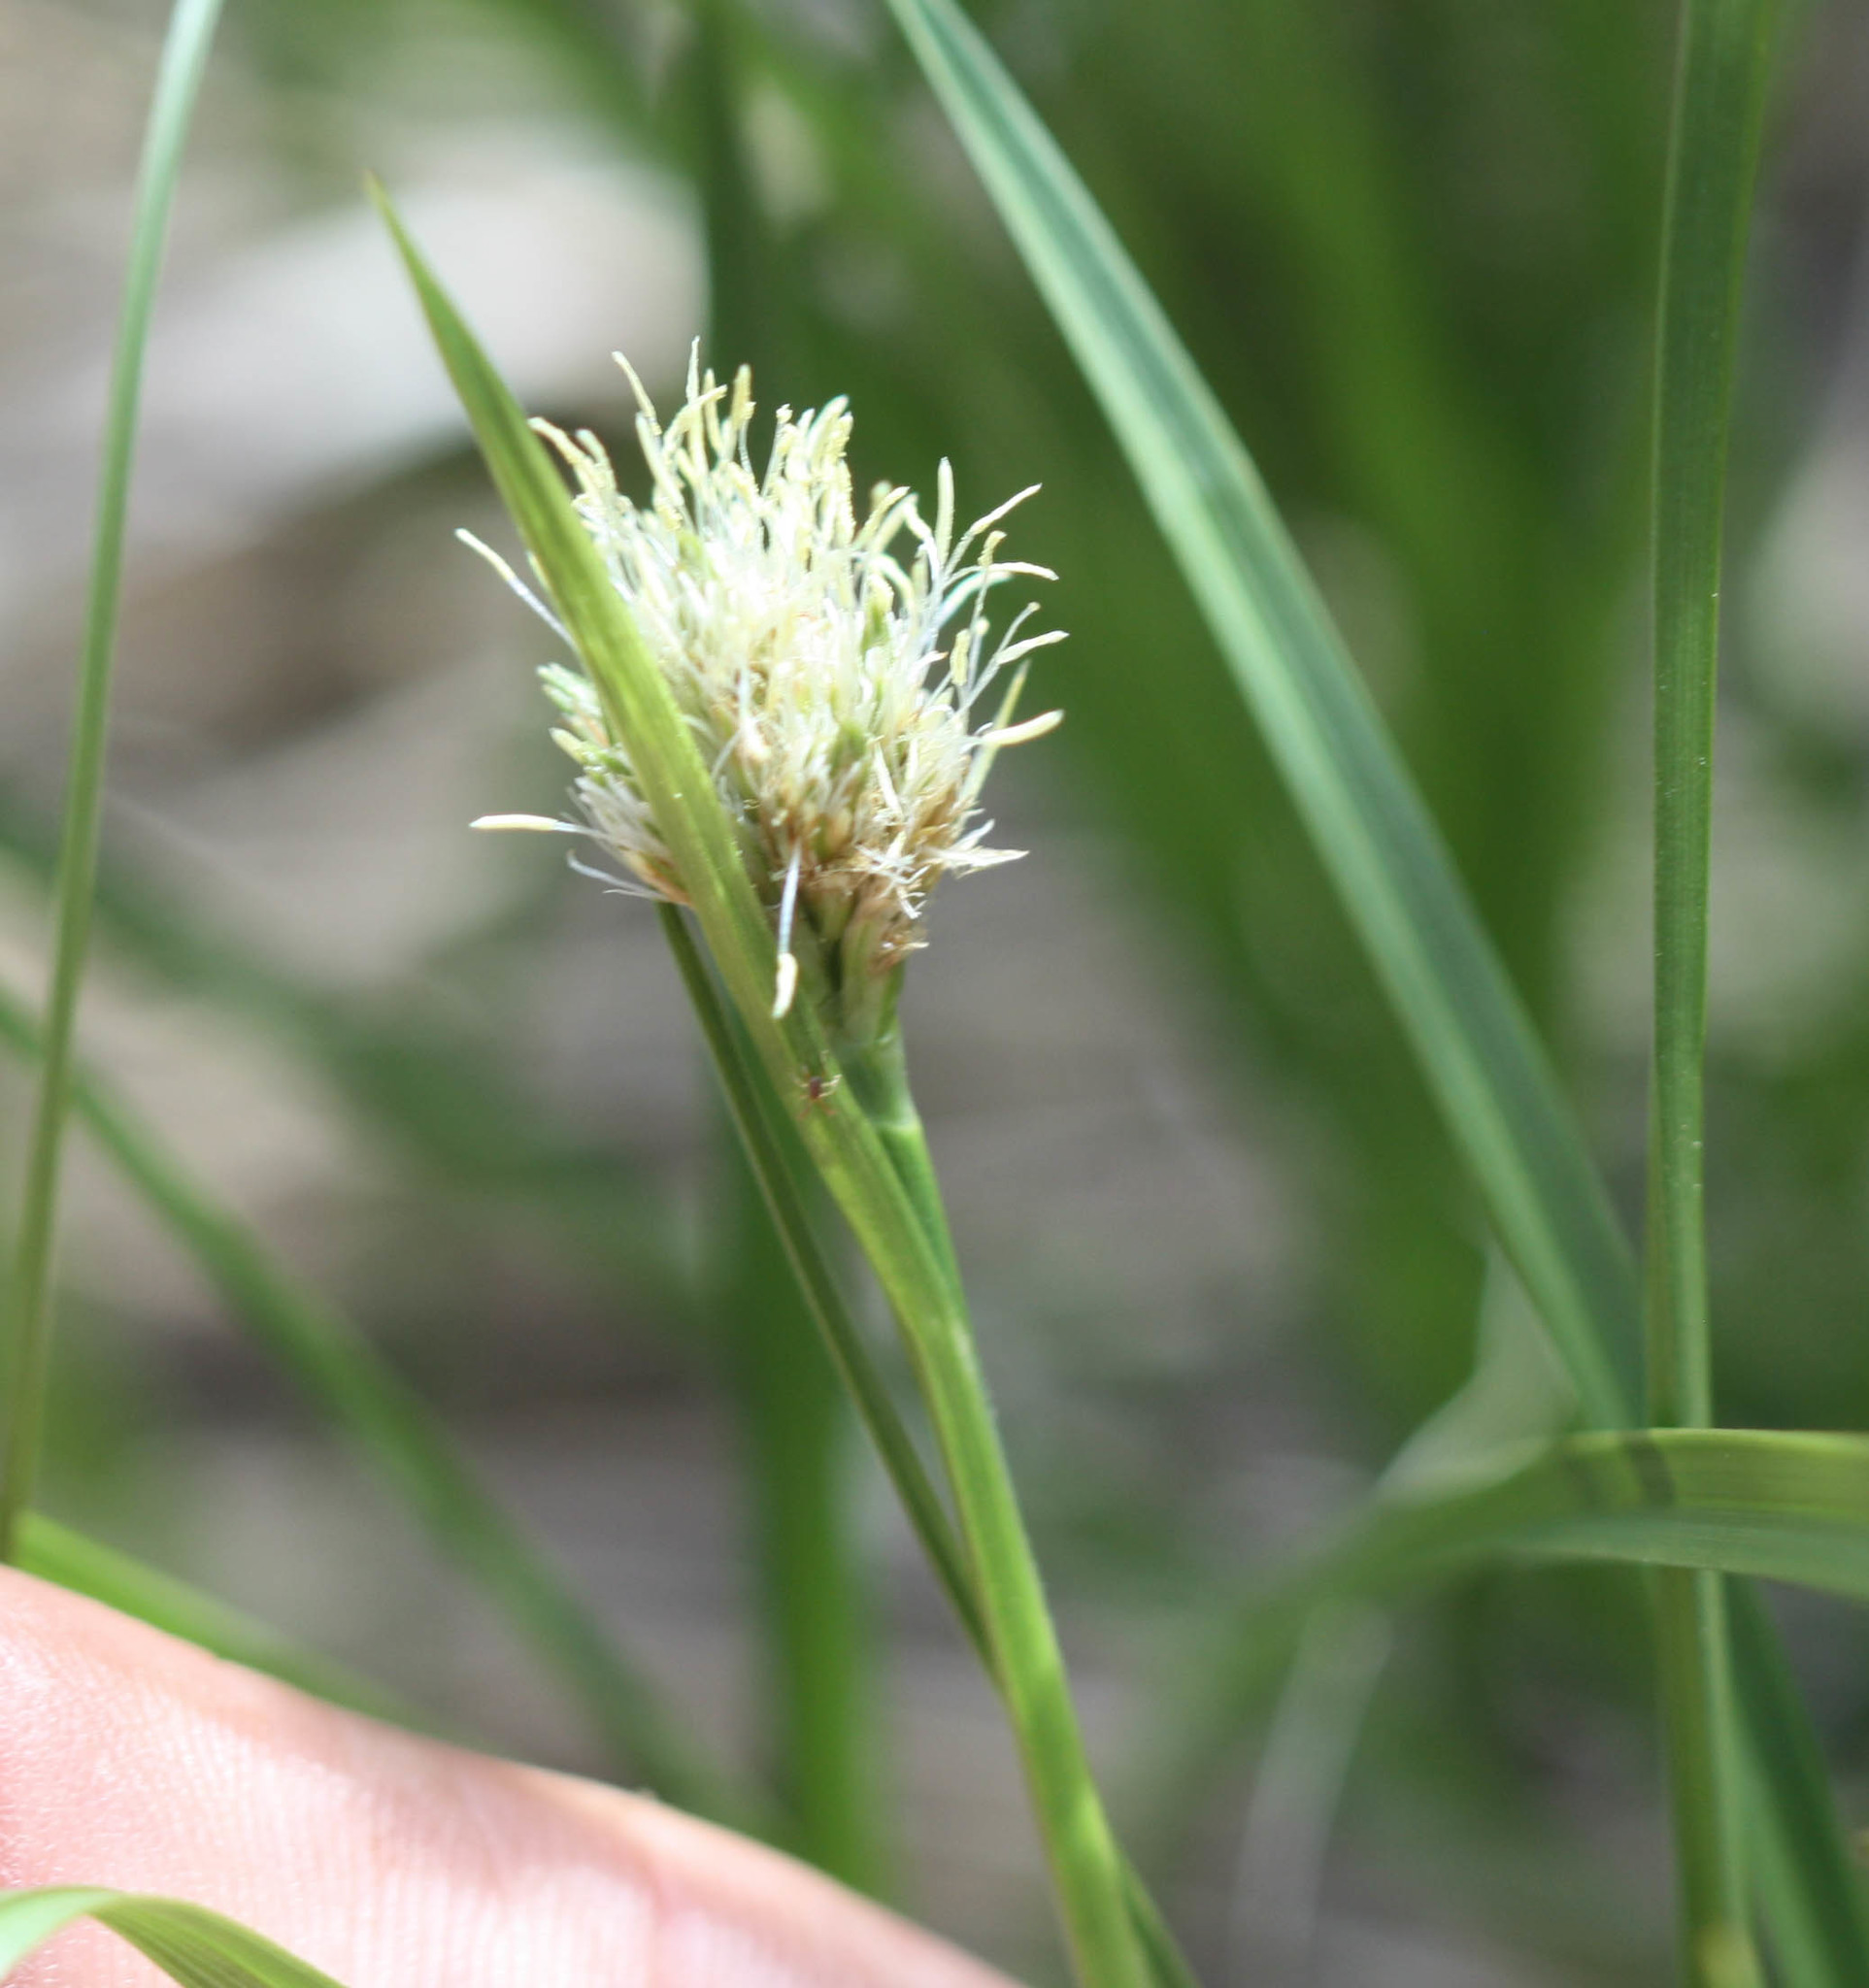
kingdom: Plantae
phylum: Tracheophyta
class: Liliopsida
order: Poales
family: Cyperaceae
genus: Calliscirpus
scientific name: Calliscirpus criniger
